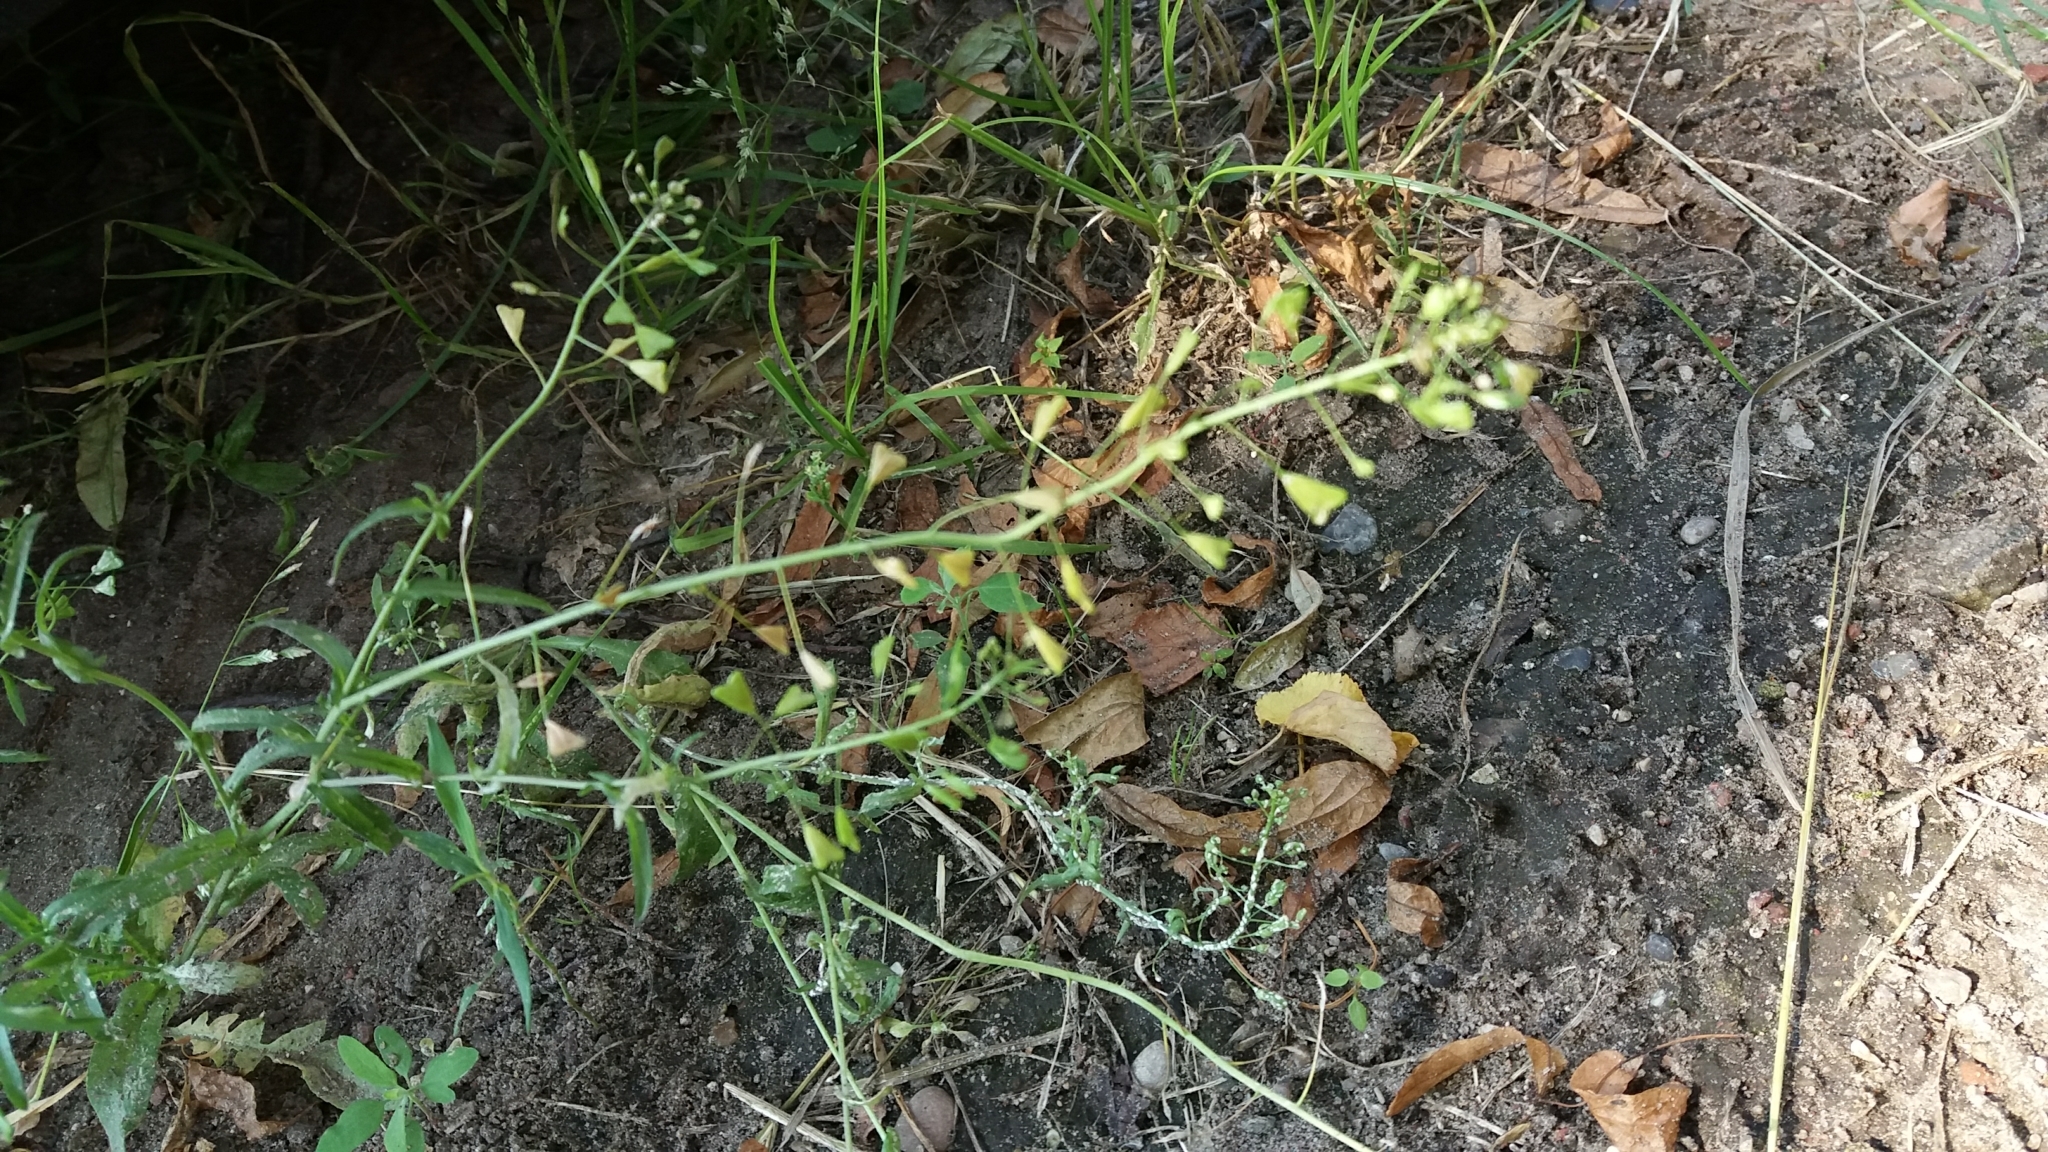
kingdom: Plantae
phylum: Tracheophyta
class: Magnoliopsida
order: Brassicales
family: Brassicaceae
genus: Capsella
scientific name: Capsella bursa-pastoris
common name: Shepherd's purse
